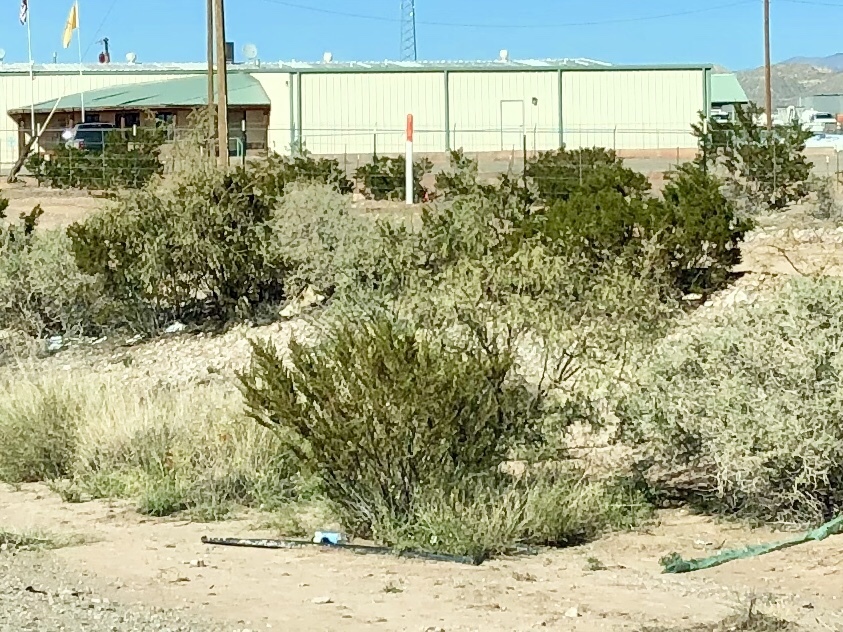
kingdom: Plantae
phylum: Tracheophyta
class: Magnoliopsida
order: Zygophyllales
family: Zygophyllaceae
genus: Larrea
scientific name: Larrea tridentata
